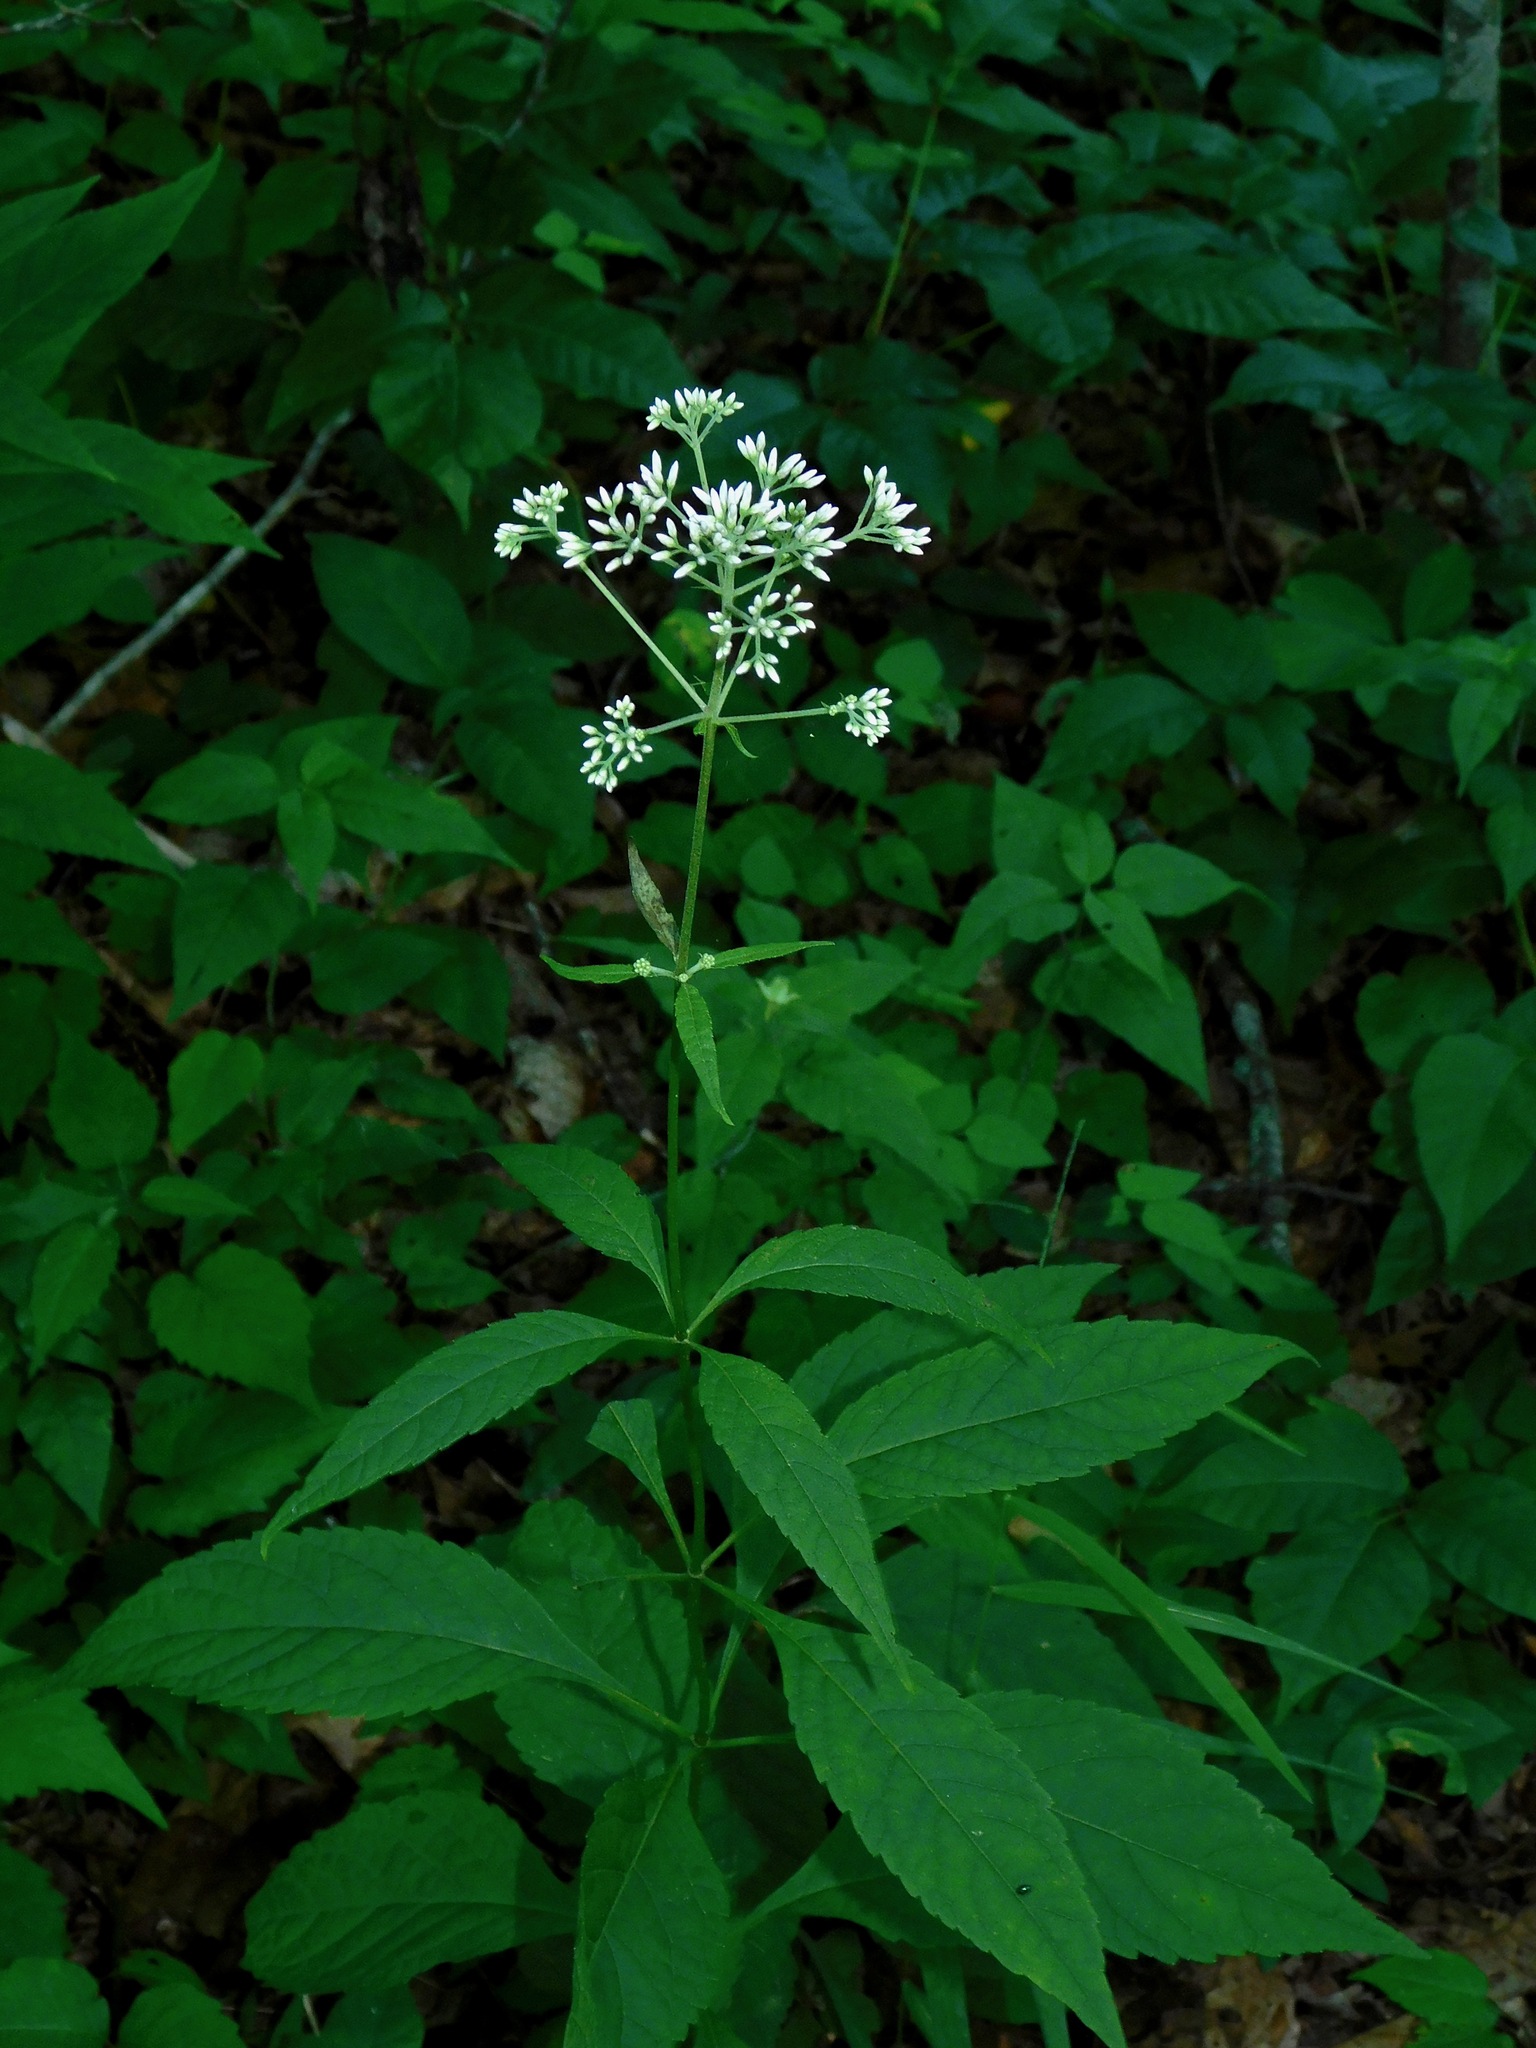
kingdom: Plantae
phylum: Tracheophyta
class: Magnoliopsida
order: Asterales
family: Asteraceae
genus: Eutrochium
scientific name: Eutrochium purpureum
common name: Gravelroot
